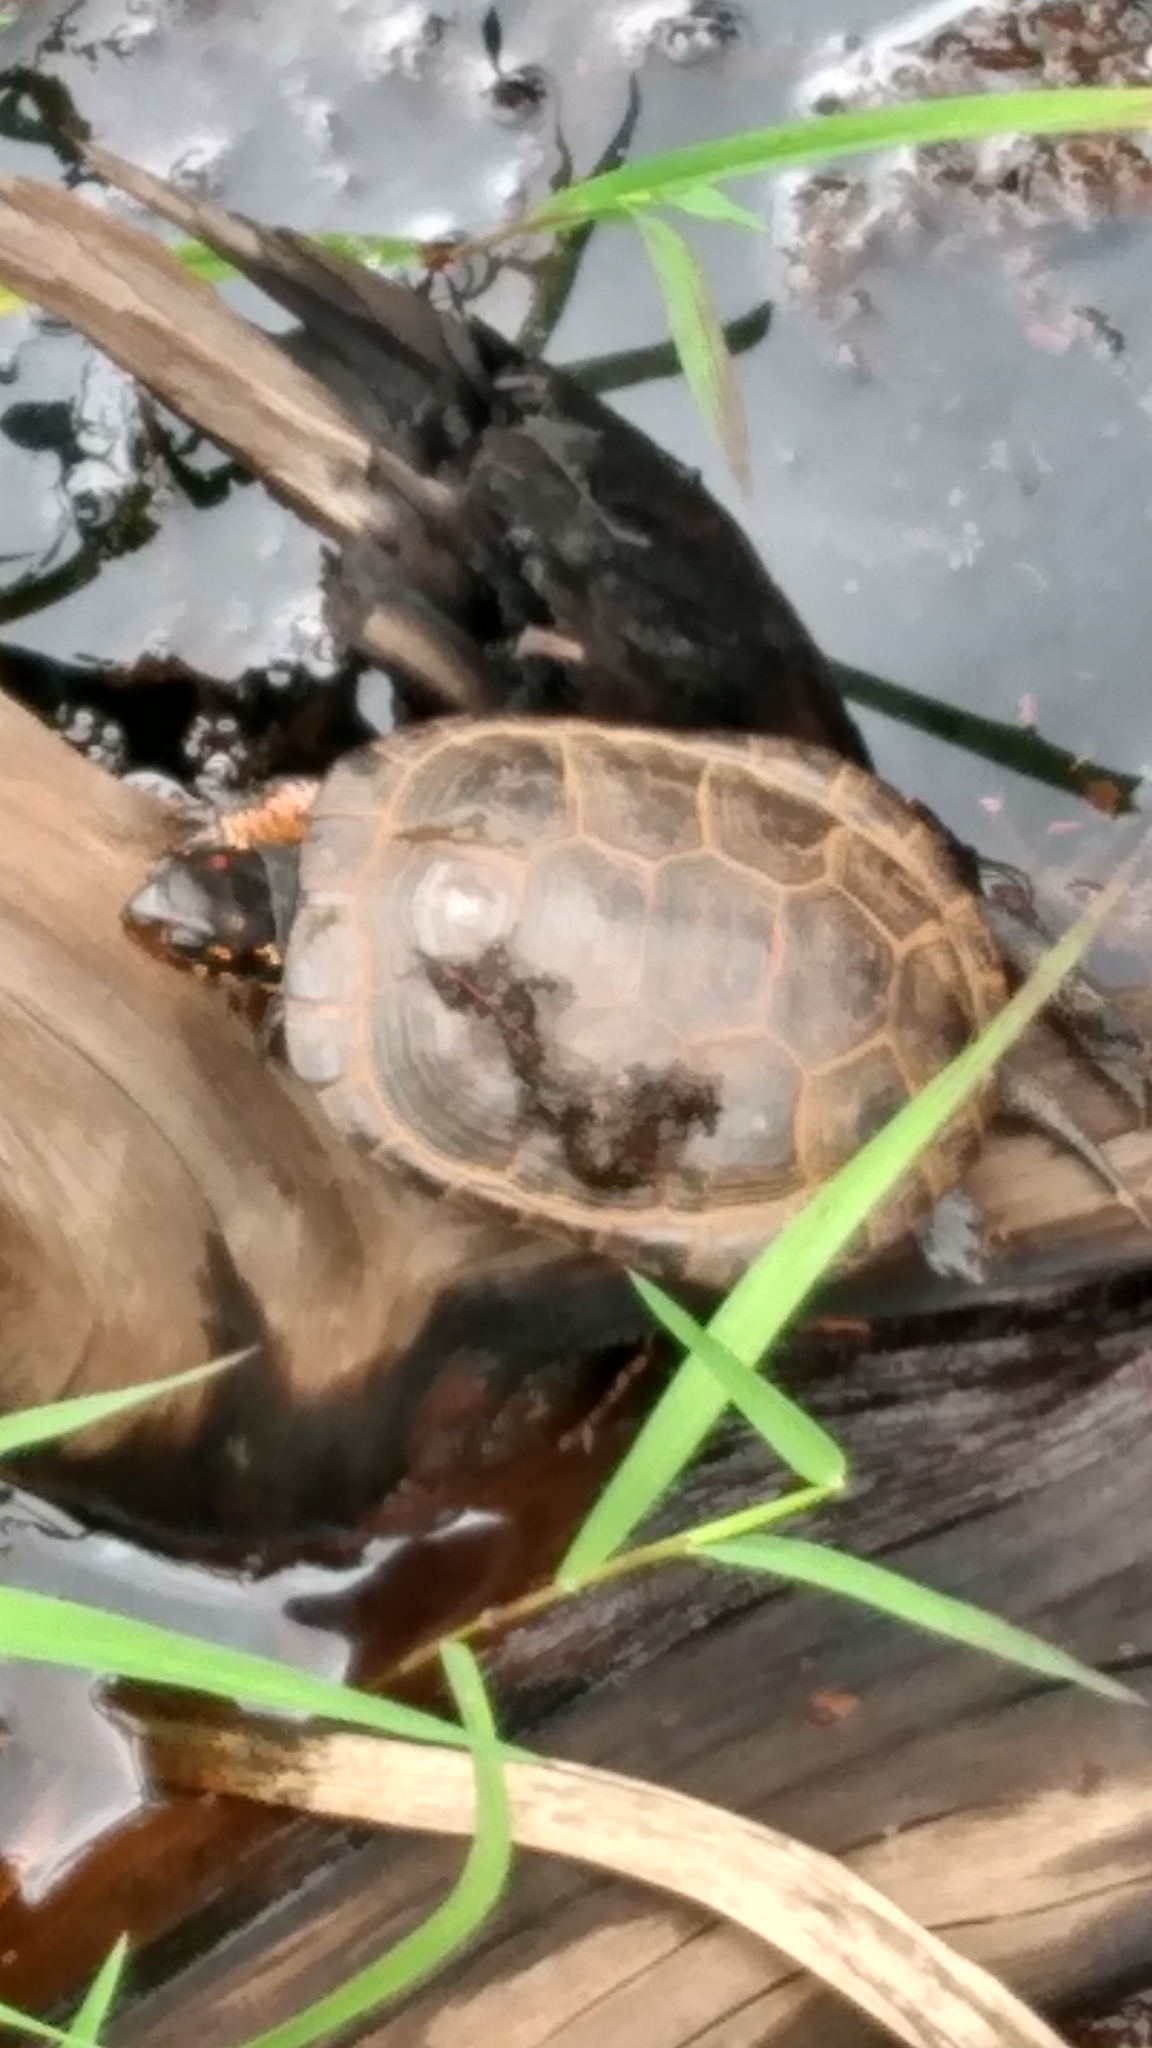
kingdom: Animalia
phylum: Chordata
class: Testudines
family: Emydidae
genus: Clemmys
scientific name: Clemmys guttata
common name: Spotted turtle
